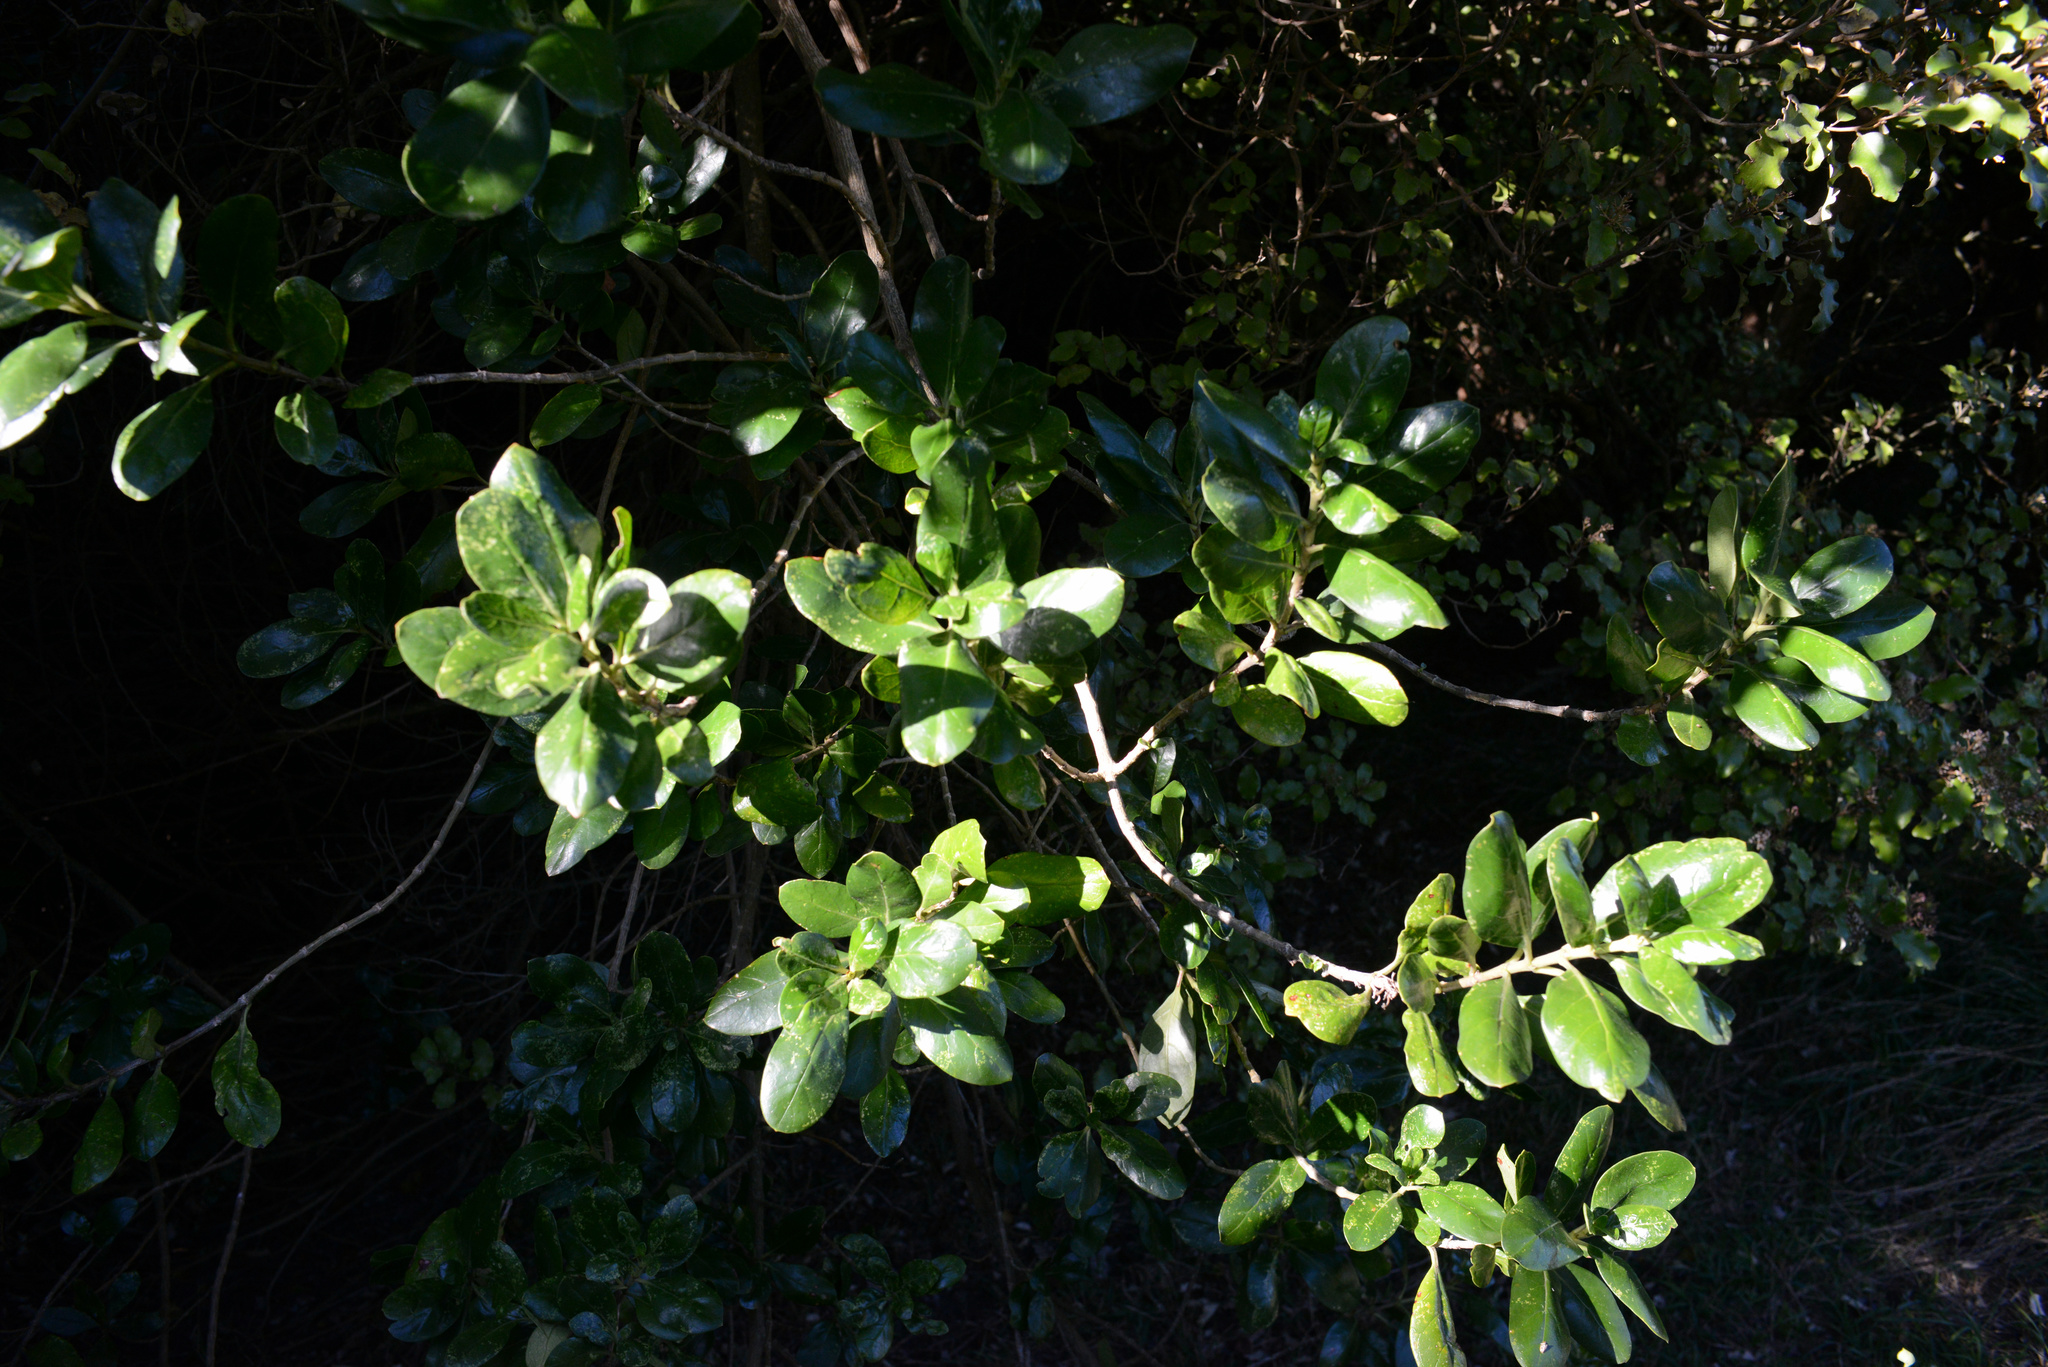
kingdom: Plantae
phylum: Tracheophyta
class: Magnoliopsida
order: Gentianales
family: Rubiaceae
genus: Coprosma
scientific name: Coprosma repens
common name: Tree bedstraw
